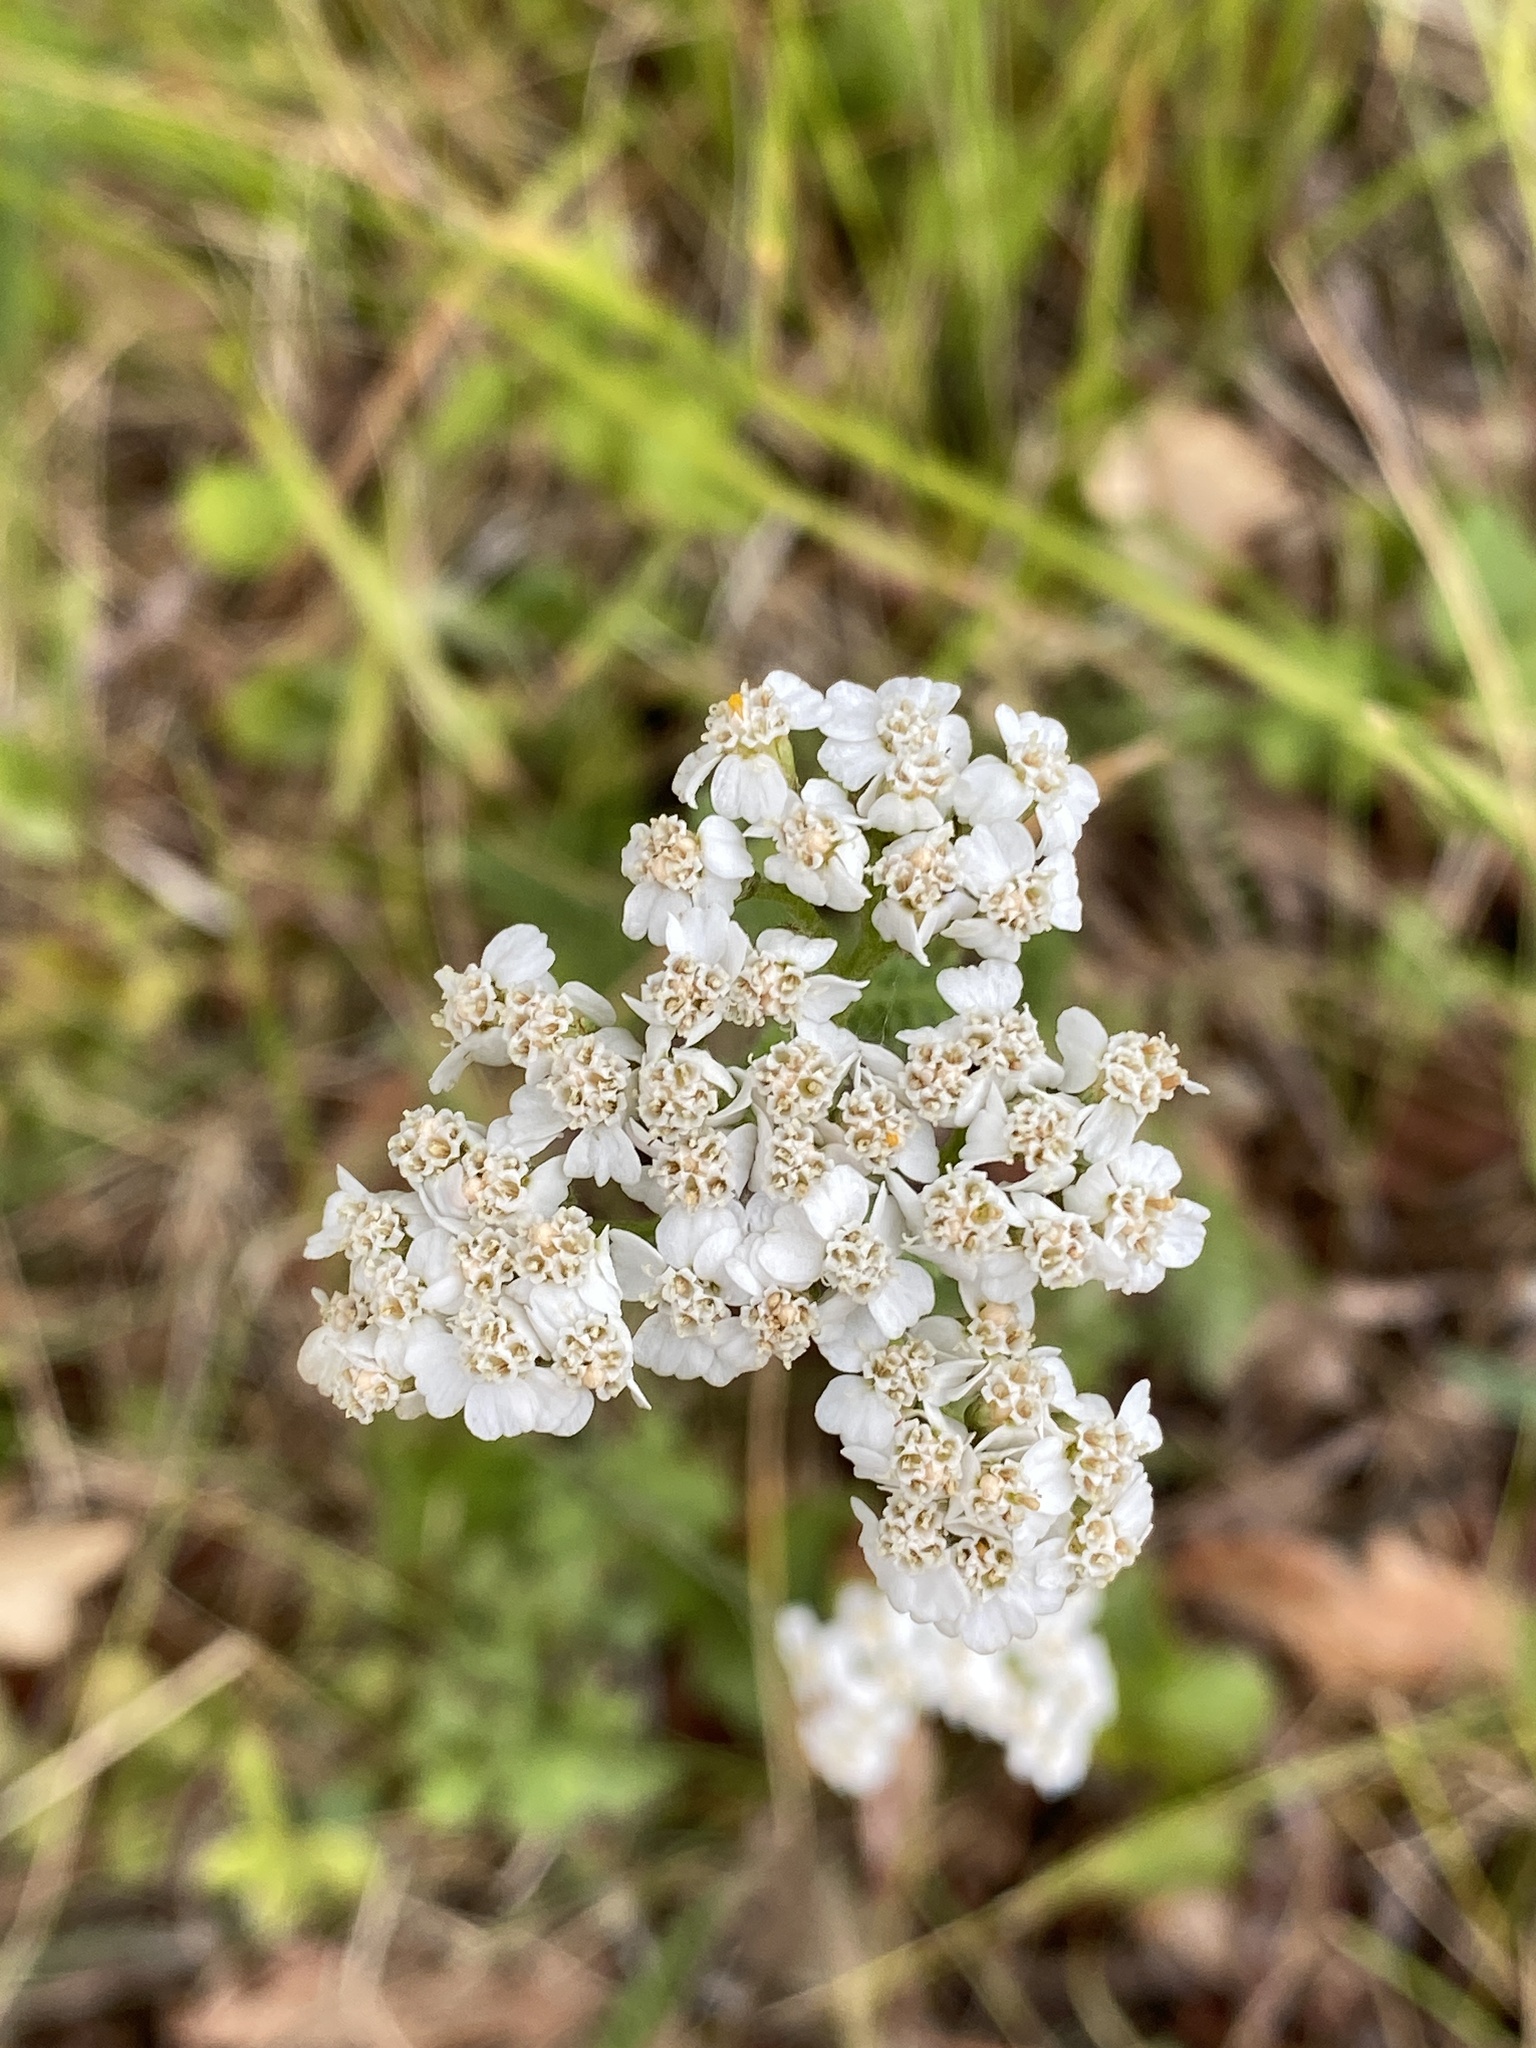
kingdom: Plantae
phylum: Tracheophyta
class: Magnoliopsida
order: Asterales
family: Asteraceae
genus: Achillea
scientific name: Achillea millefolium
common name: Yarrow
